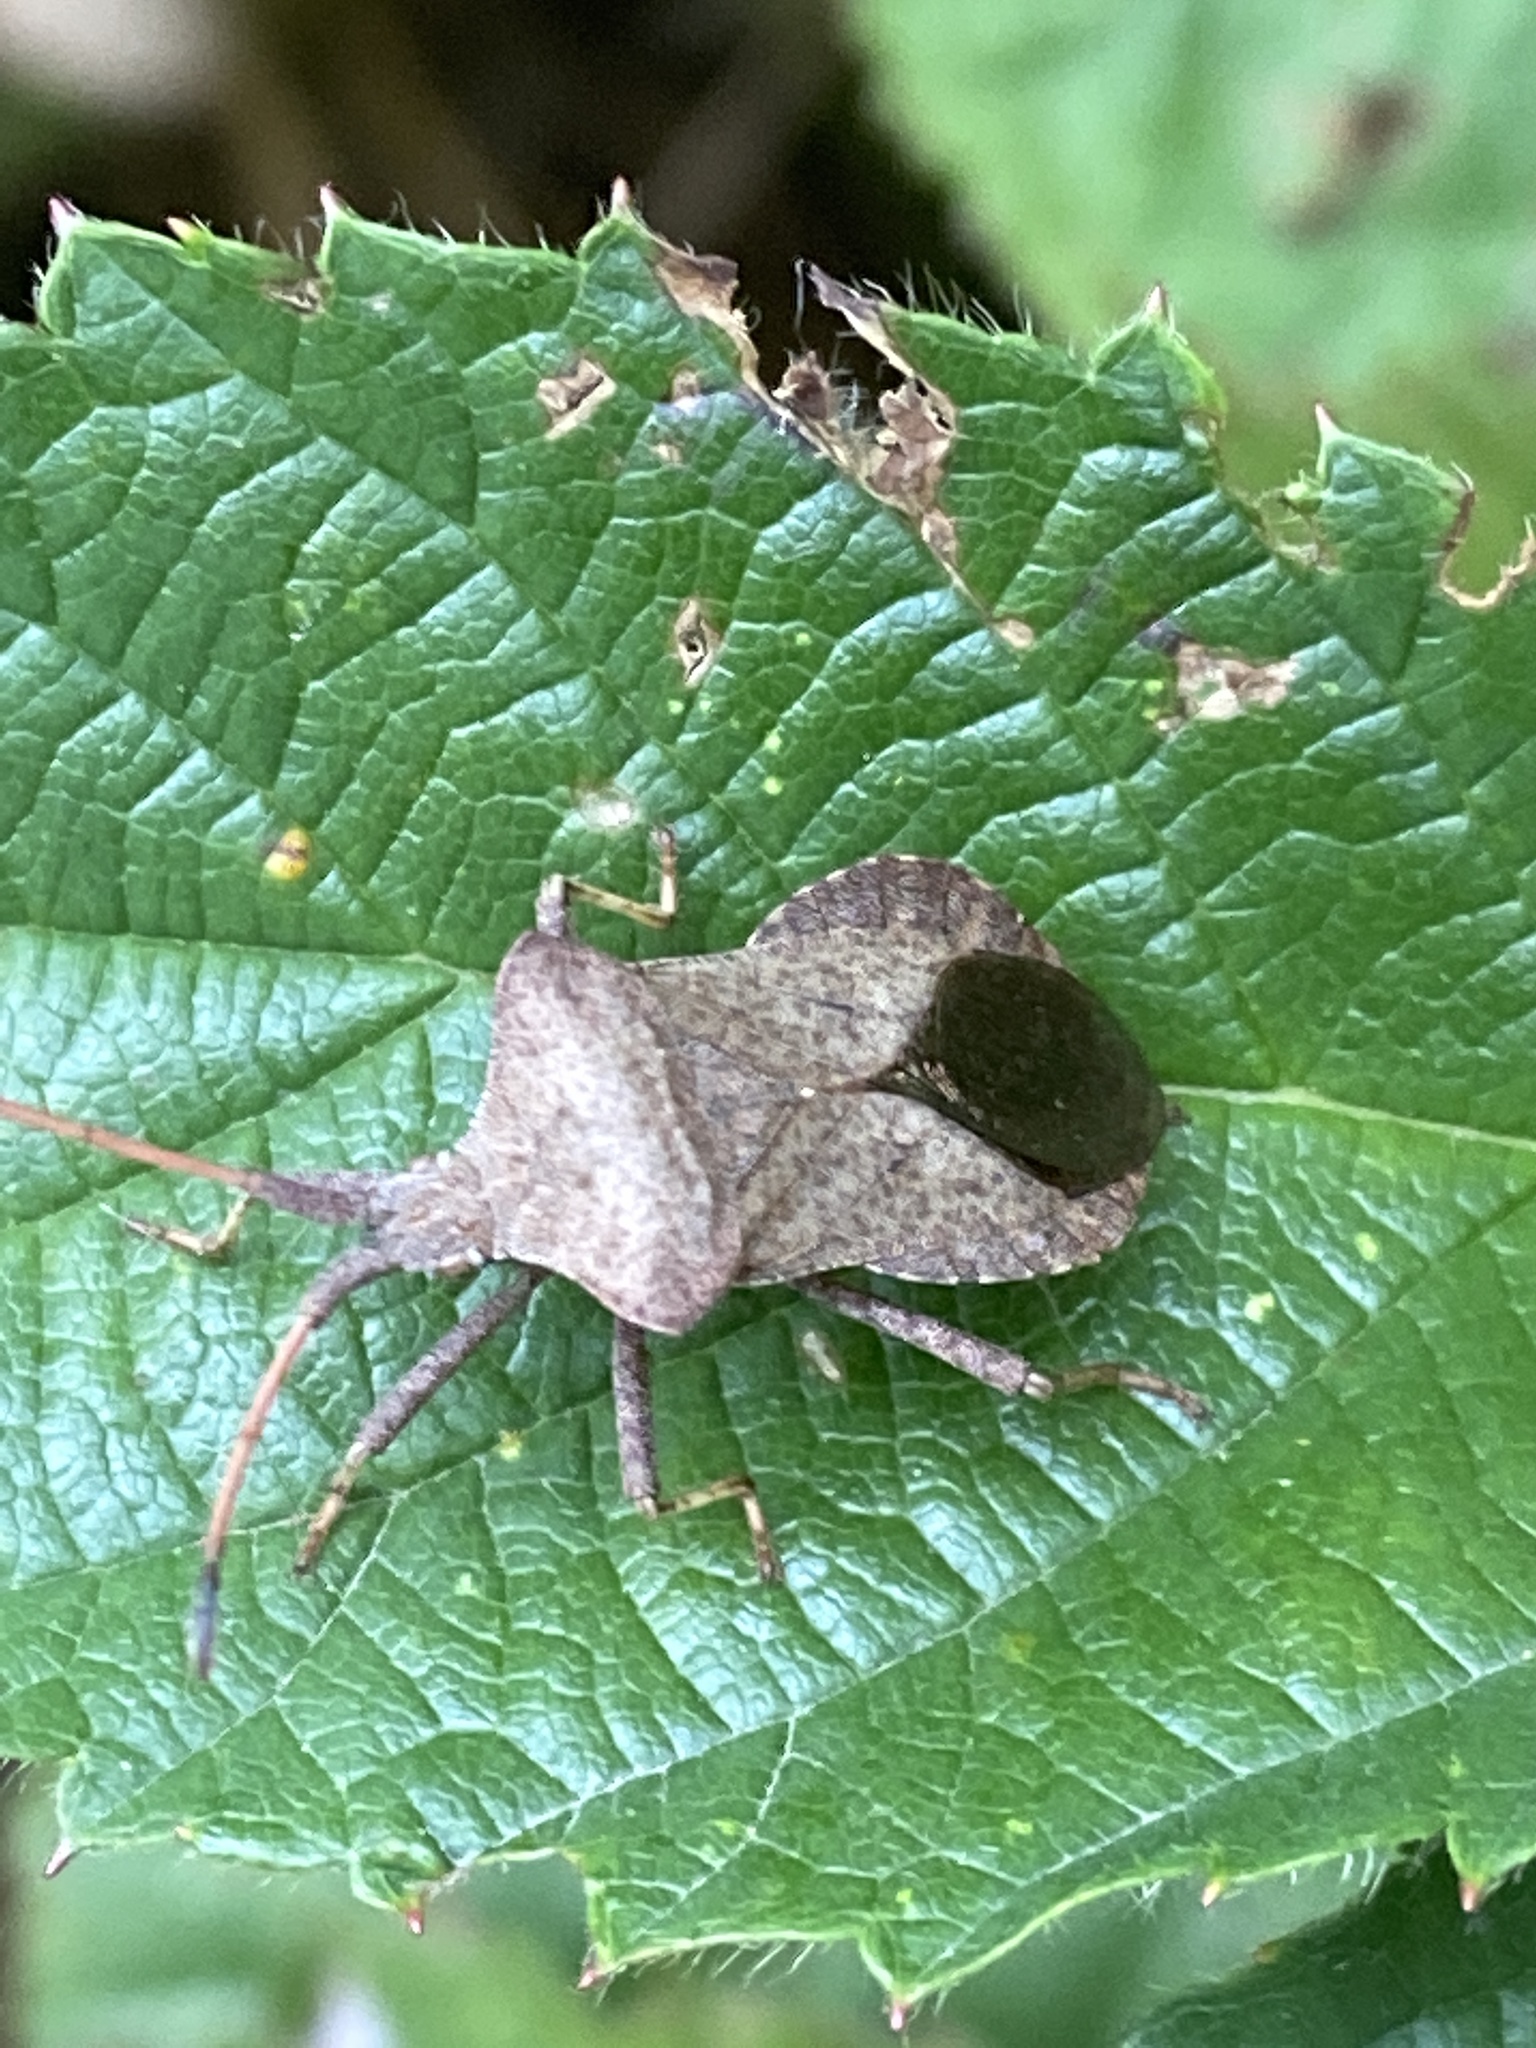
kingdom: Animalia
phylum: Arthropoda
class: Insecta
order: Hemiptera
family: Coreidae
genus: Coreus
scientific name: Coreus marginatus
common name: Dock bug
